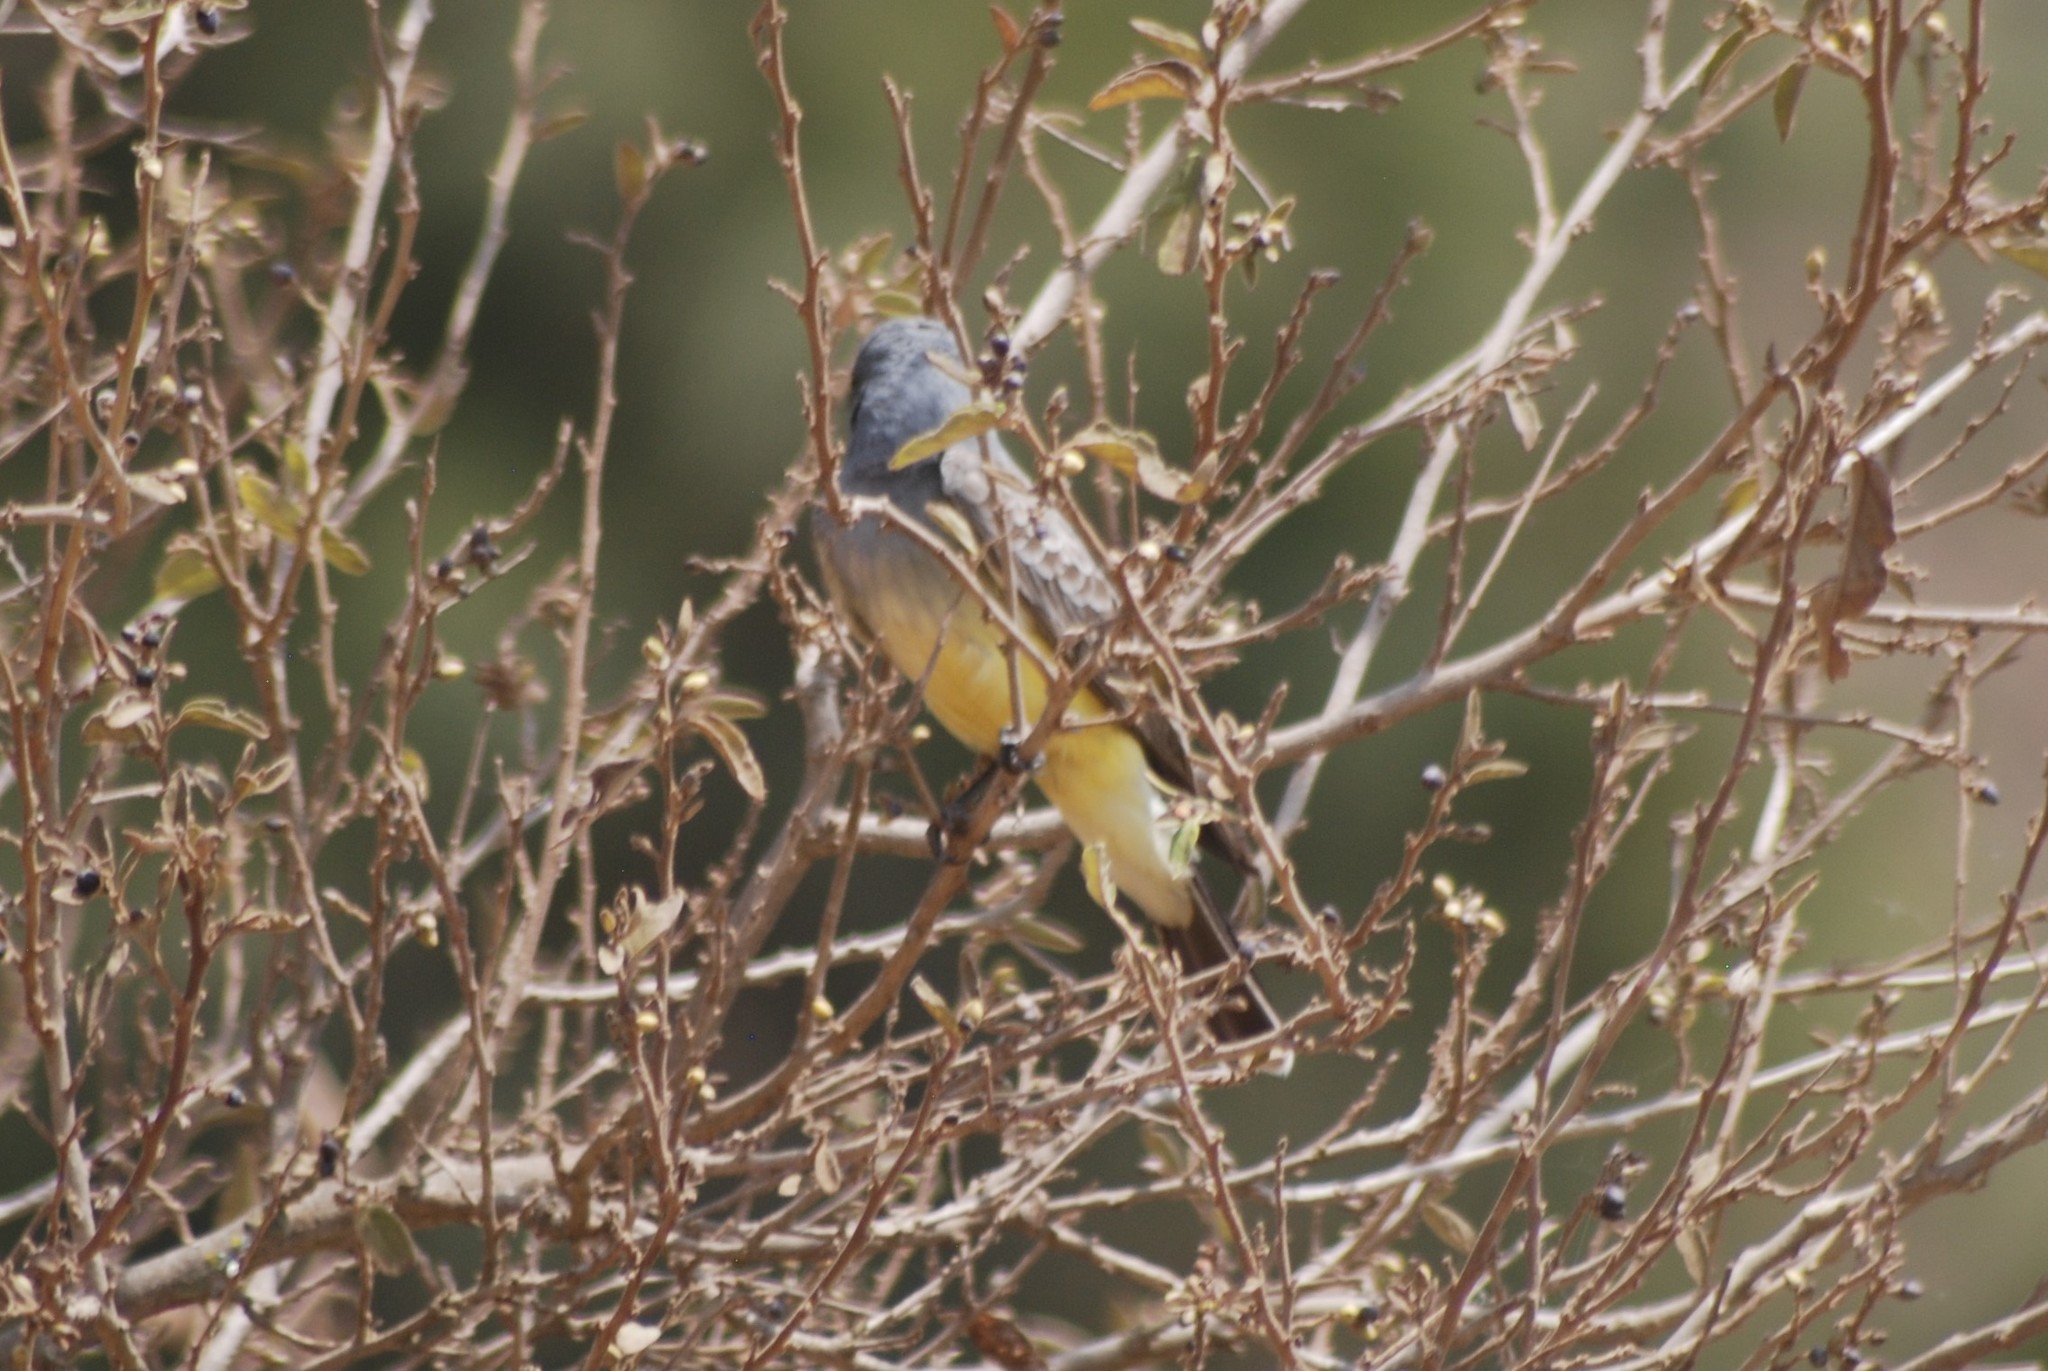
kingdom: Animalia
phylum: Chordata
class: Aves
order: Passeriformes
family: Tyrannidae
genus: Tyrannus
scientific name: Tyrannus vociferans
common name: Cassin's kingbird
